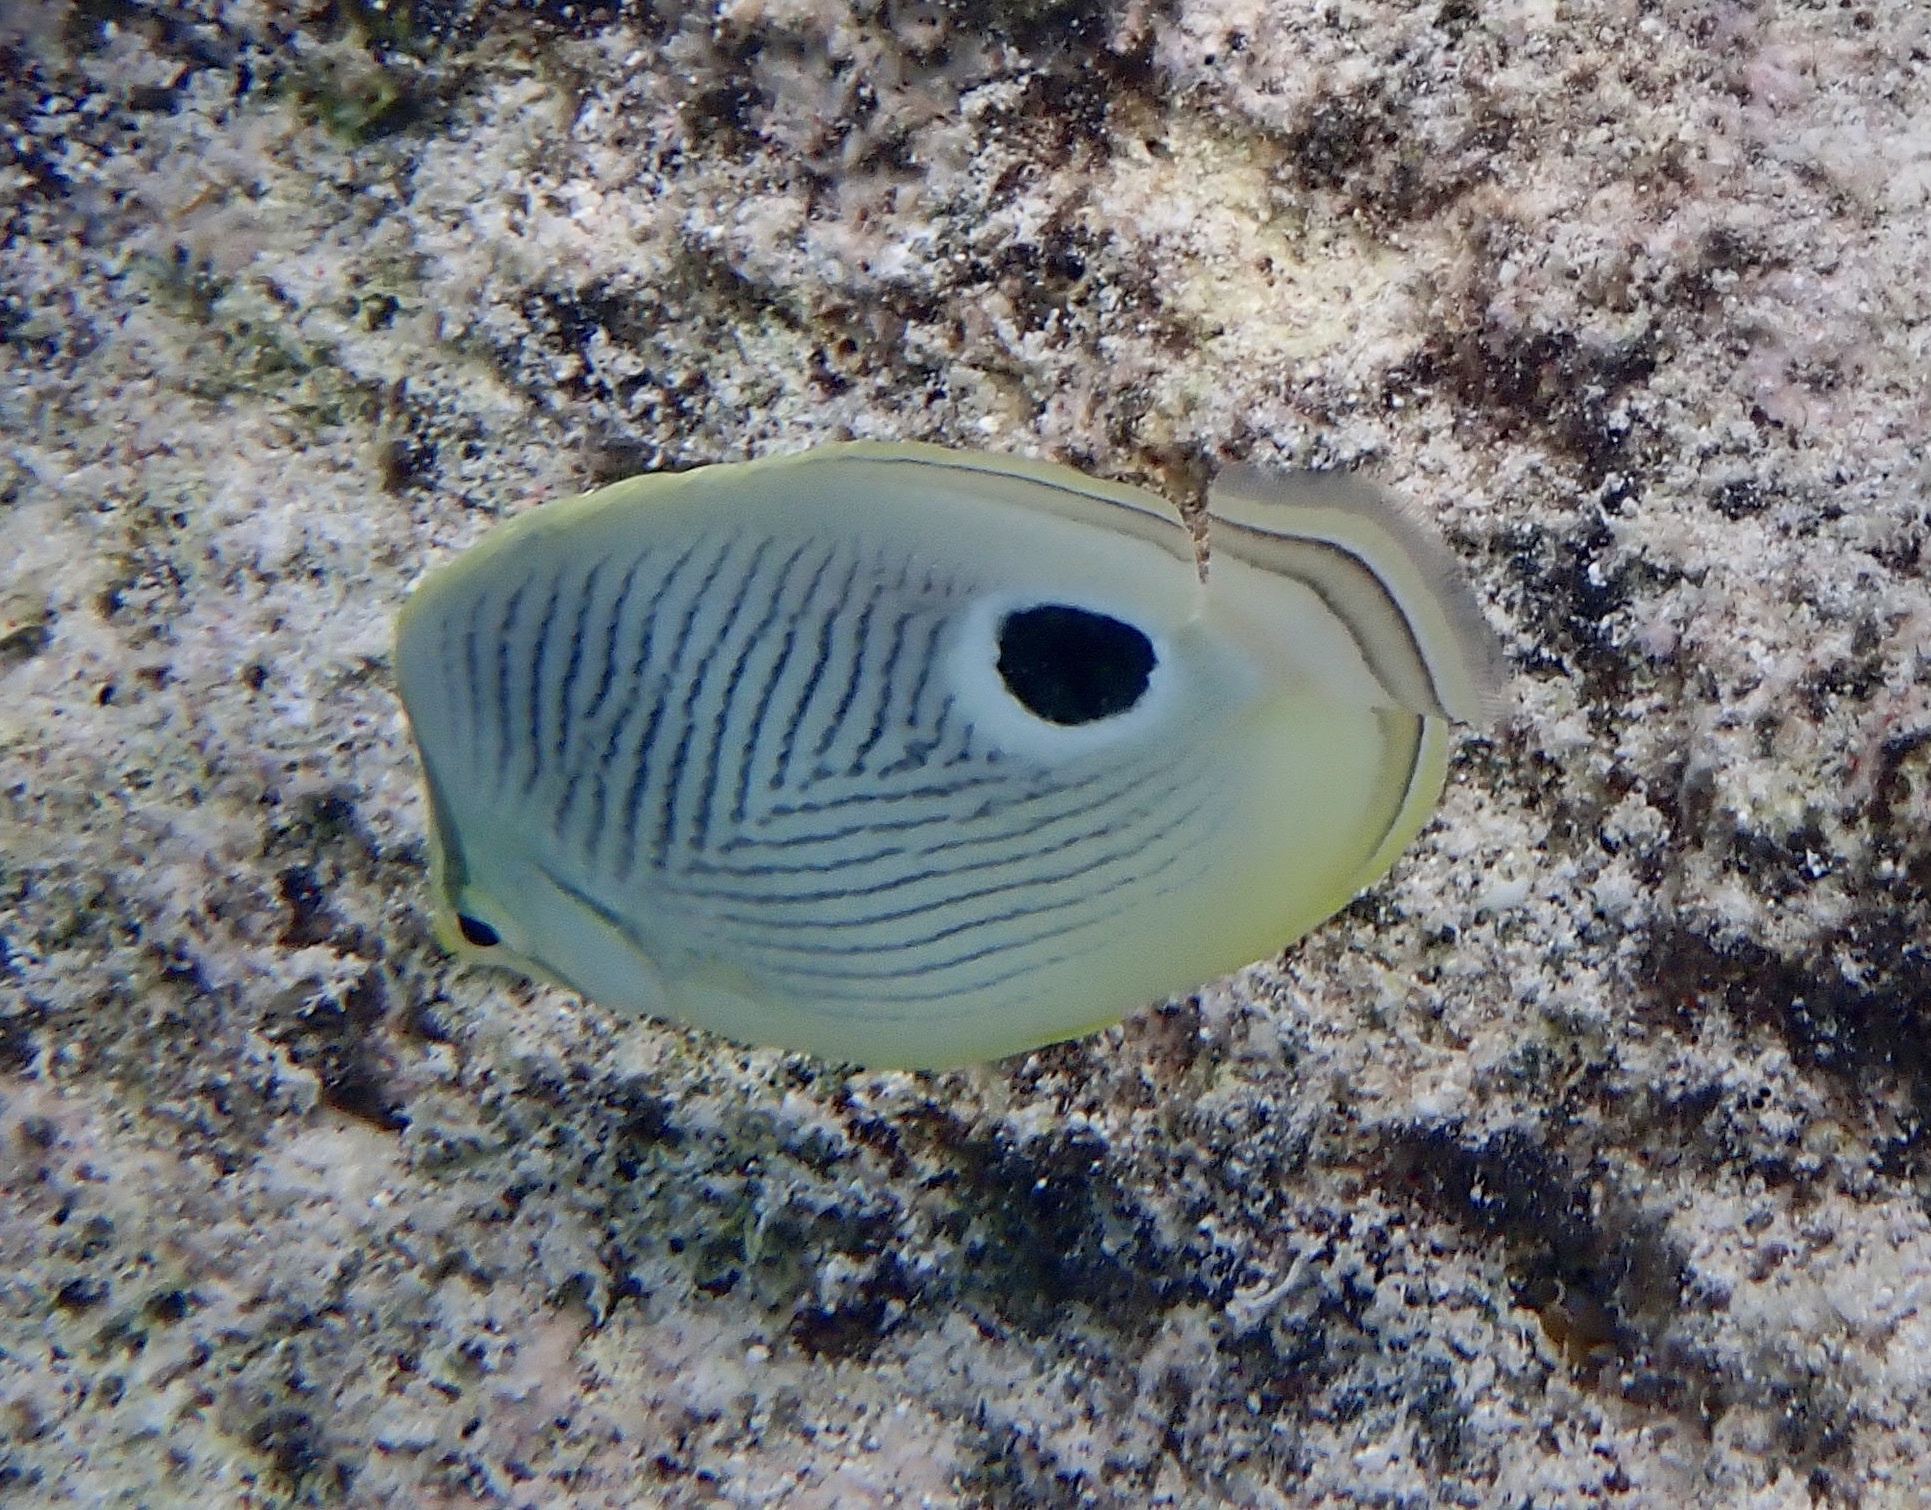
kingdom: Animalia
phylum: Chordata
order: Perciformes
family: Chaetodontidae
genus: Chaetodon
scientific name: Chaetodon capistratus
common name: Kete
